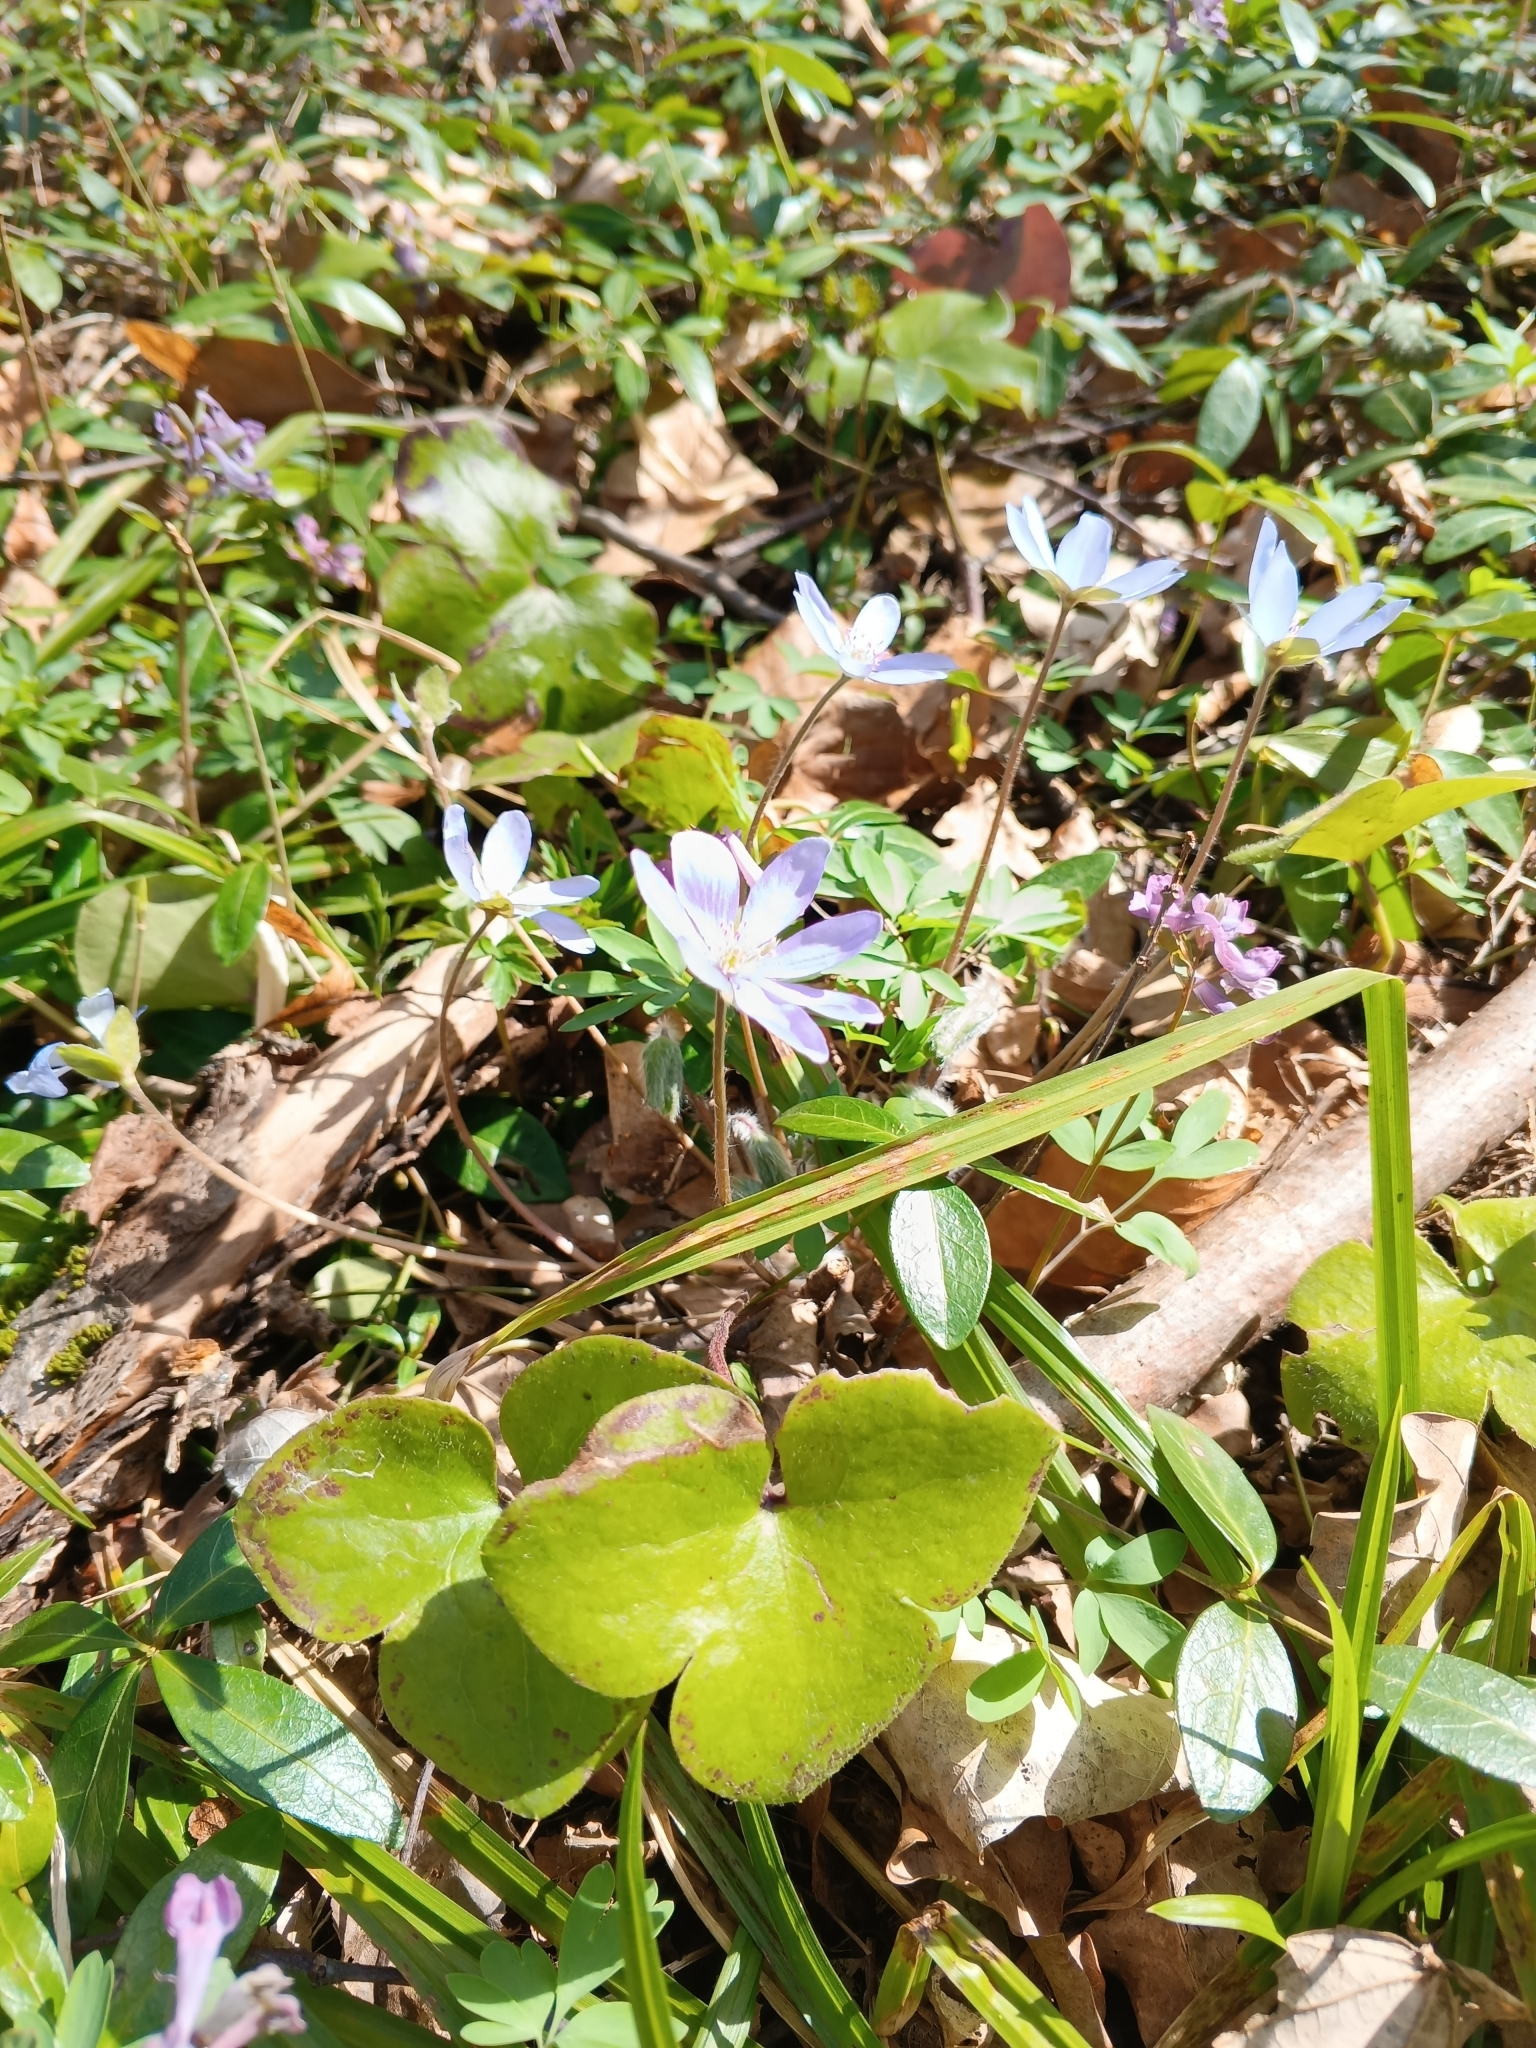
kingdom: Plantae
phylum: Tracheophyta
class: Magnoliopsida
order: Ranunculales
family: Ranunculaceae
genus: Hepatica
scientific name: Hepatica nobilis
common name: Liverleaf
